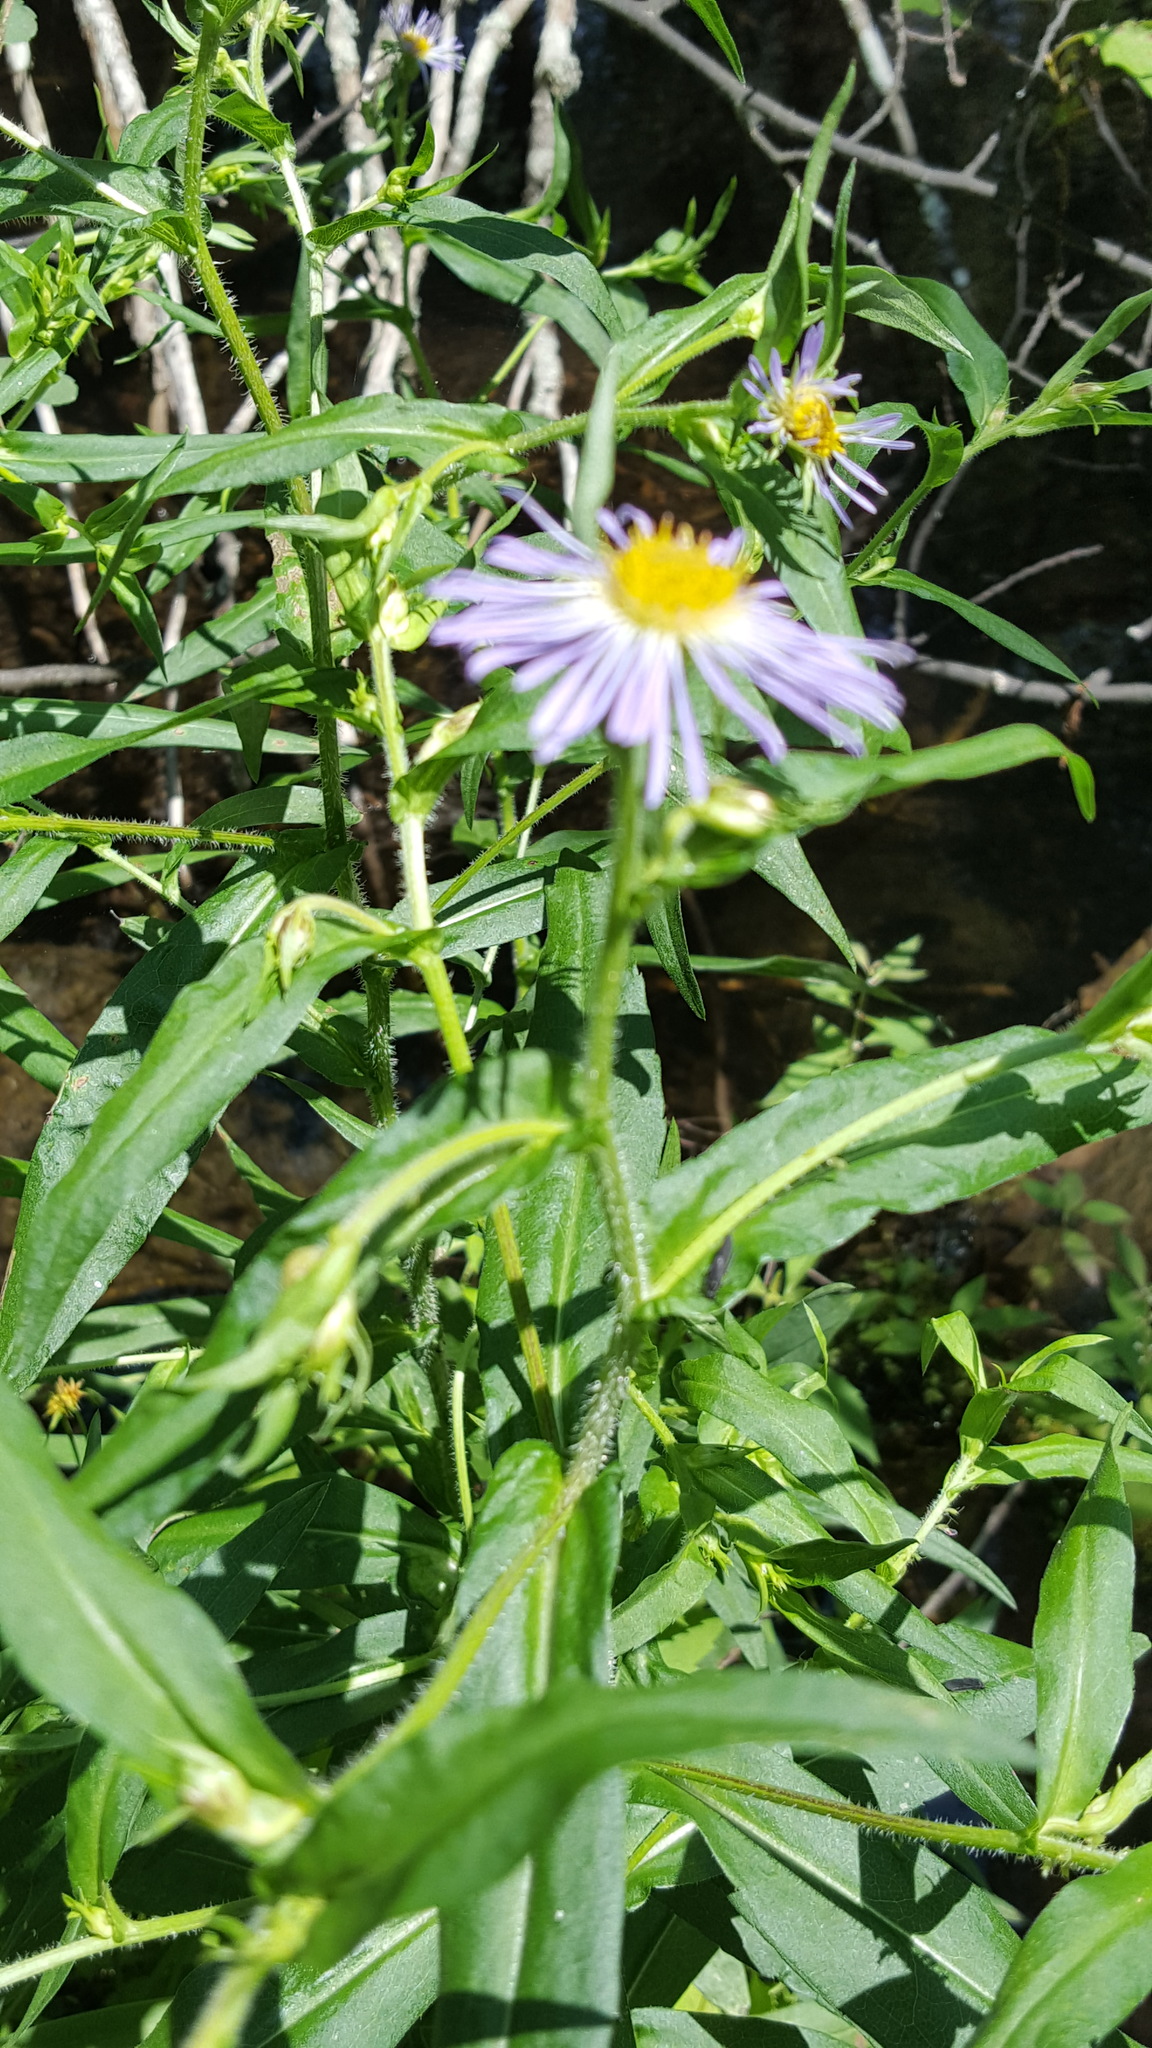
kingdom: Plantae
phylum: Tracheophyta
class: Magnoliopsida
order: Asterales
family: Asteraceae
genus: Symphyotrichum
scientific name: Symphyotrichum puniceum
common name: Bog aster
